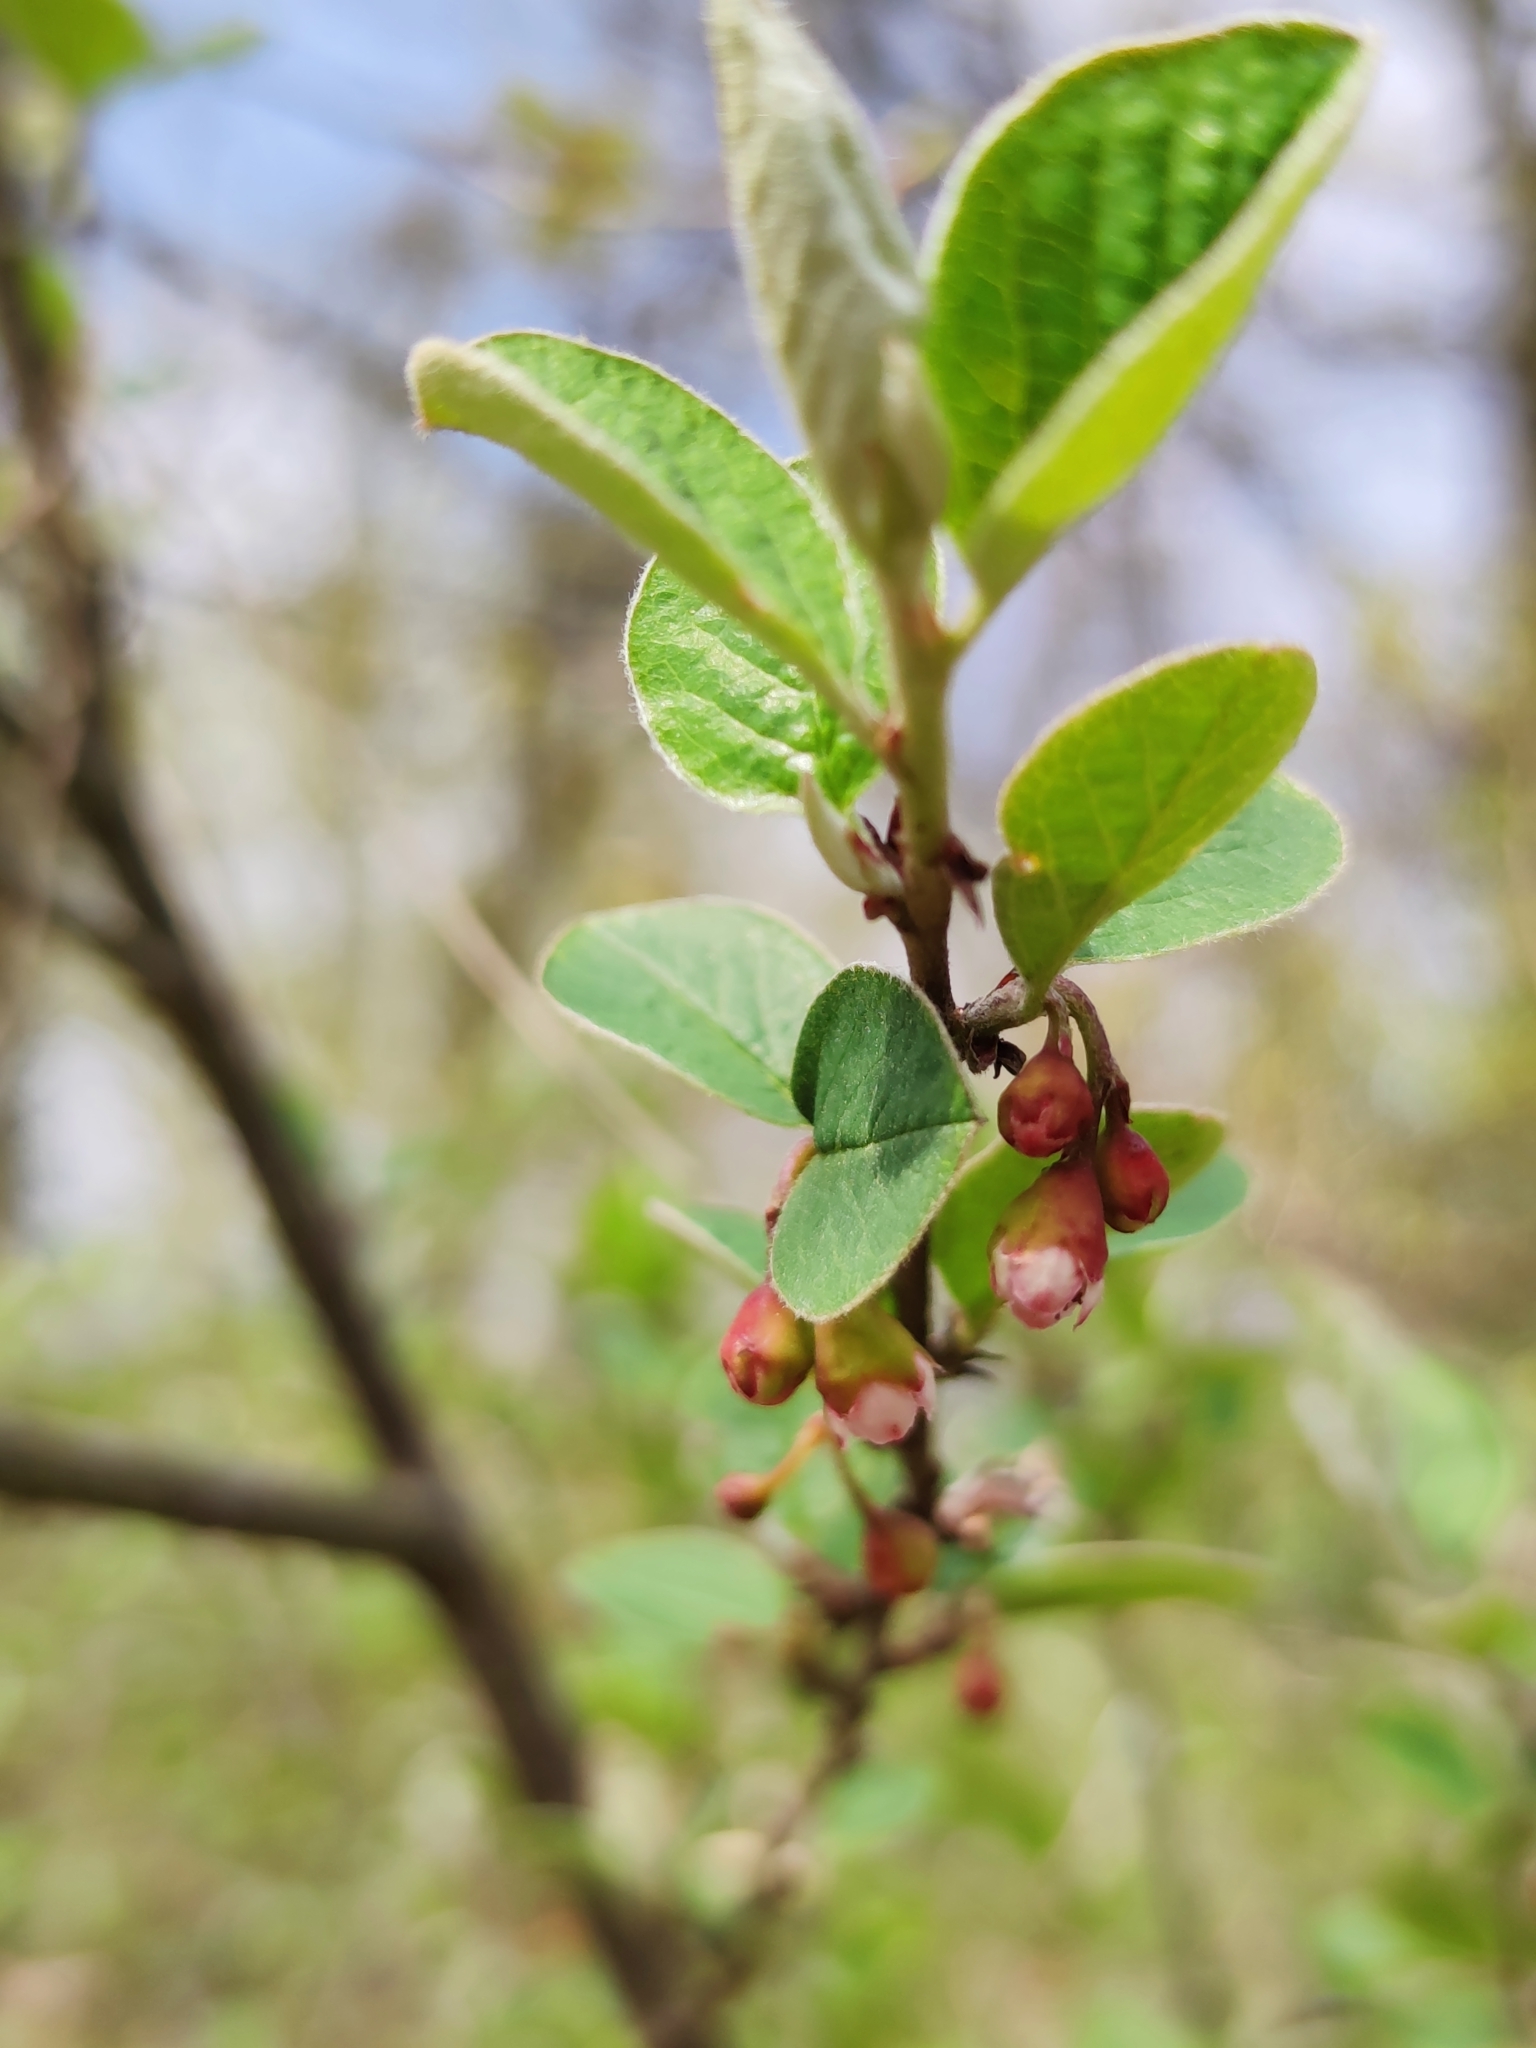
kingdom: Plantae
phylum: Tracheophyta
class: Magnoliopsida
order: Rosales
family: Rosaceae
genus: Cotoneaster
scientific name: Cotoneaster integerrimus
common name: Wild cotoneaster
